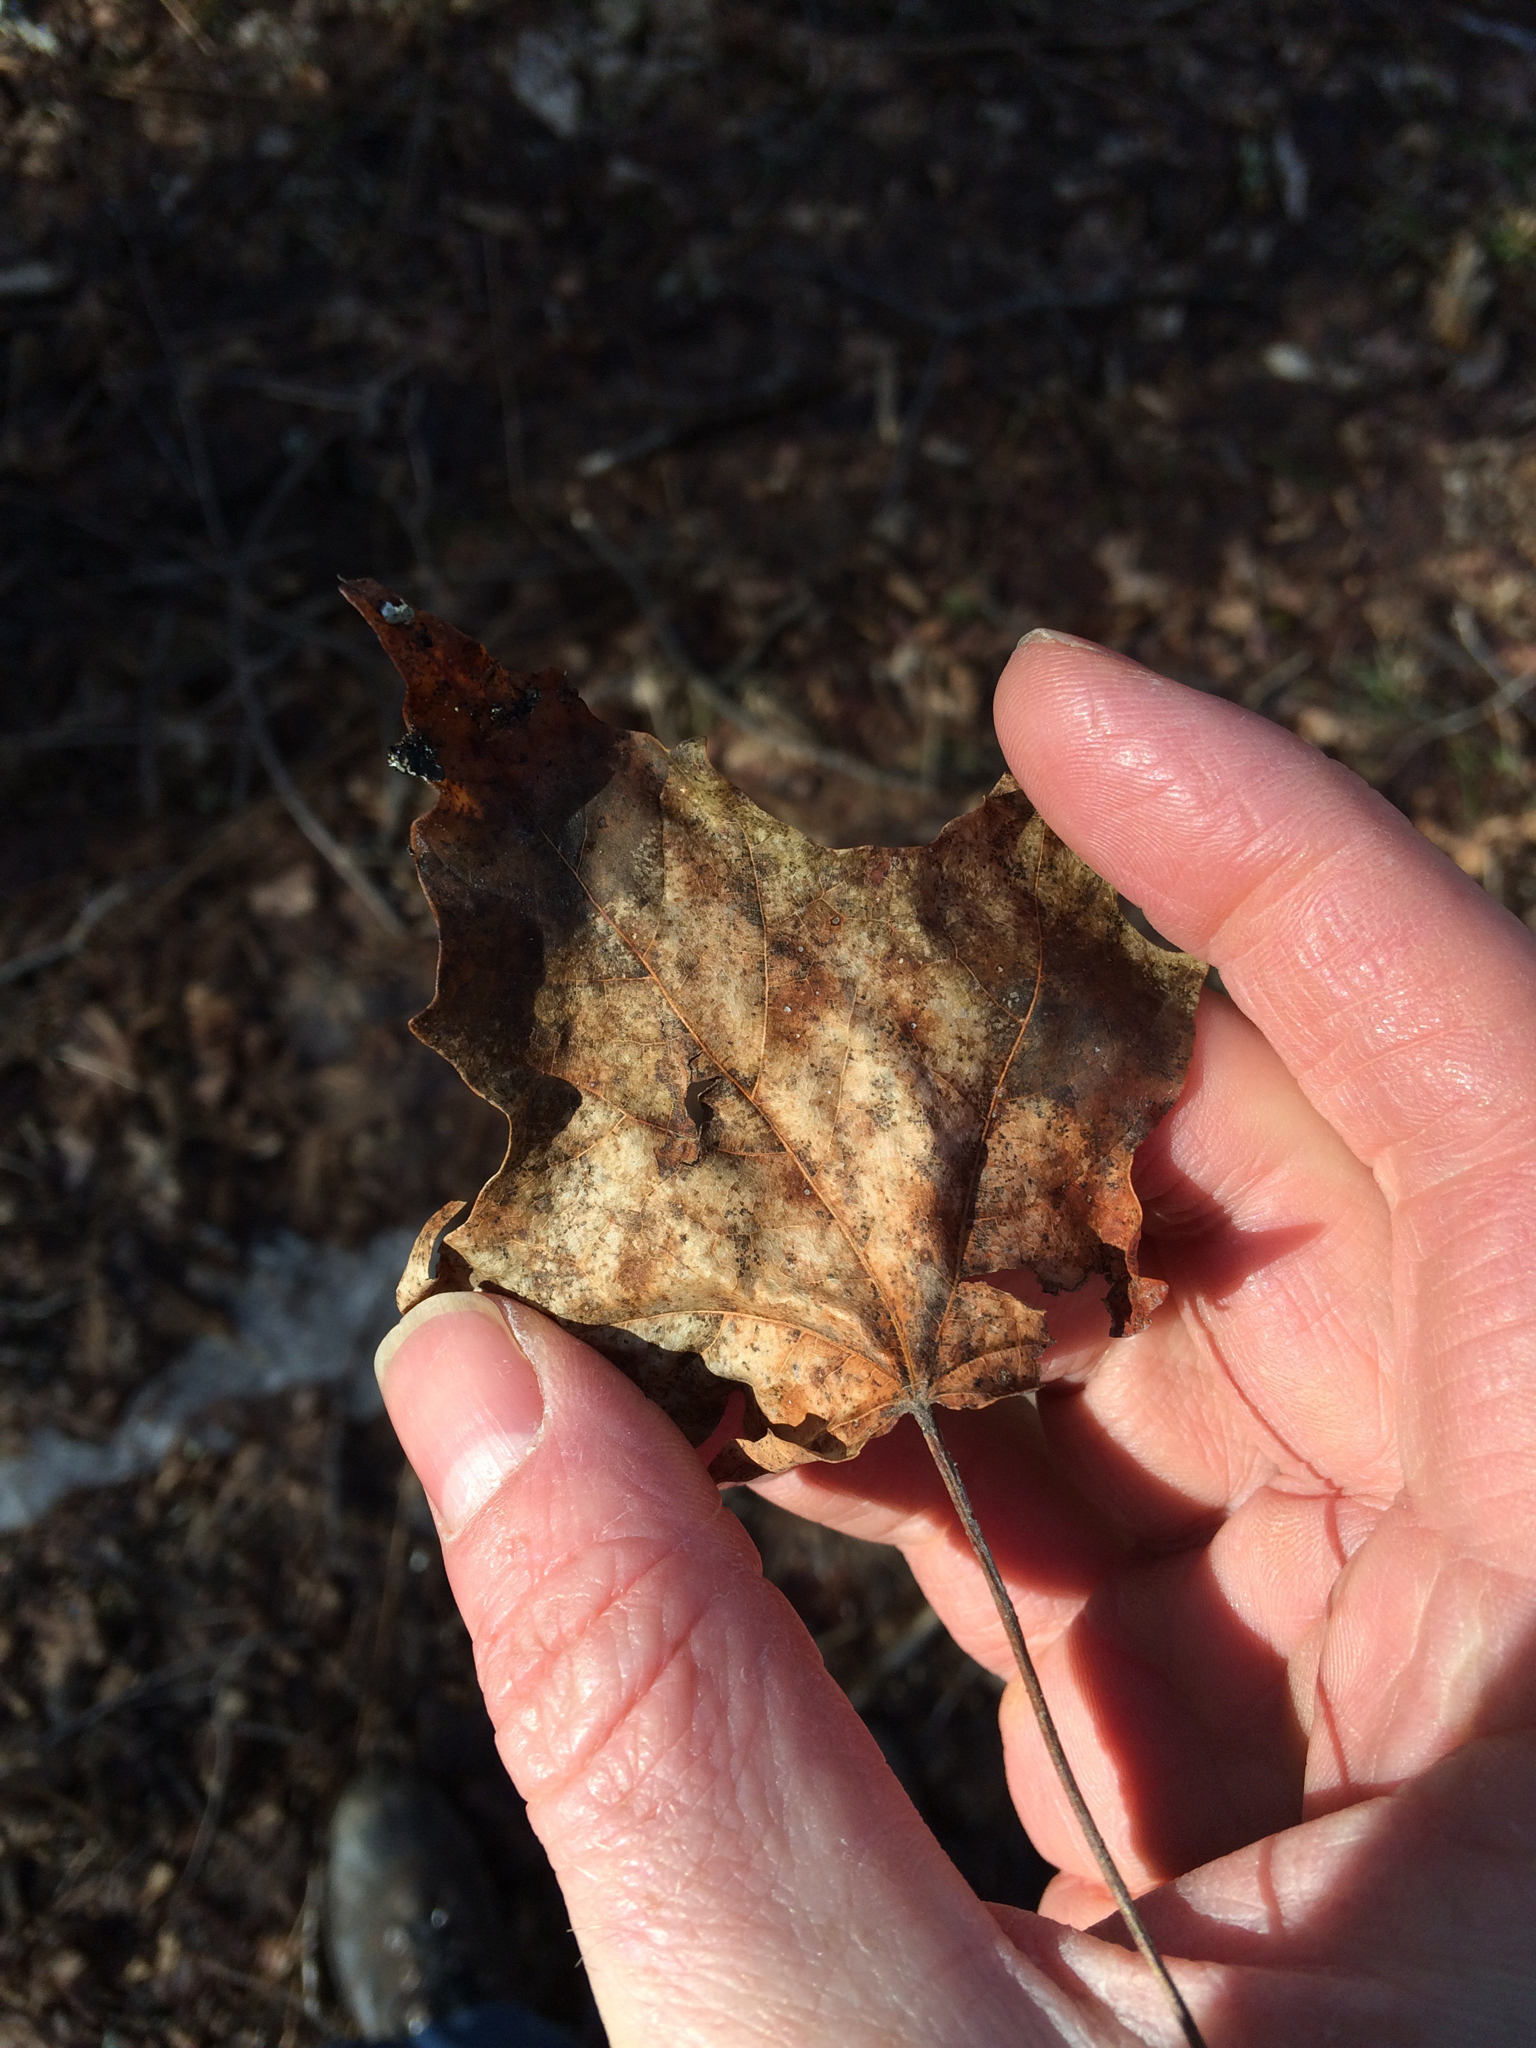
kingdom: Plantae
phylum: Tracheophyta
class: Magnoliopsida
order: Sapindales
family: Sapindaceae
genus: Acer
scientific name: Acer rubrum
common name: Red maple
